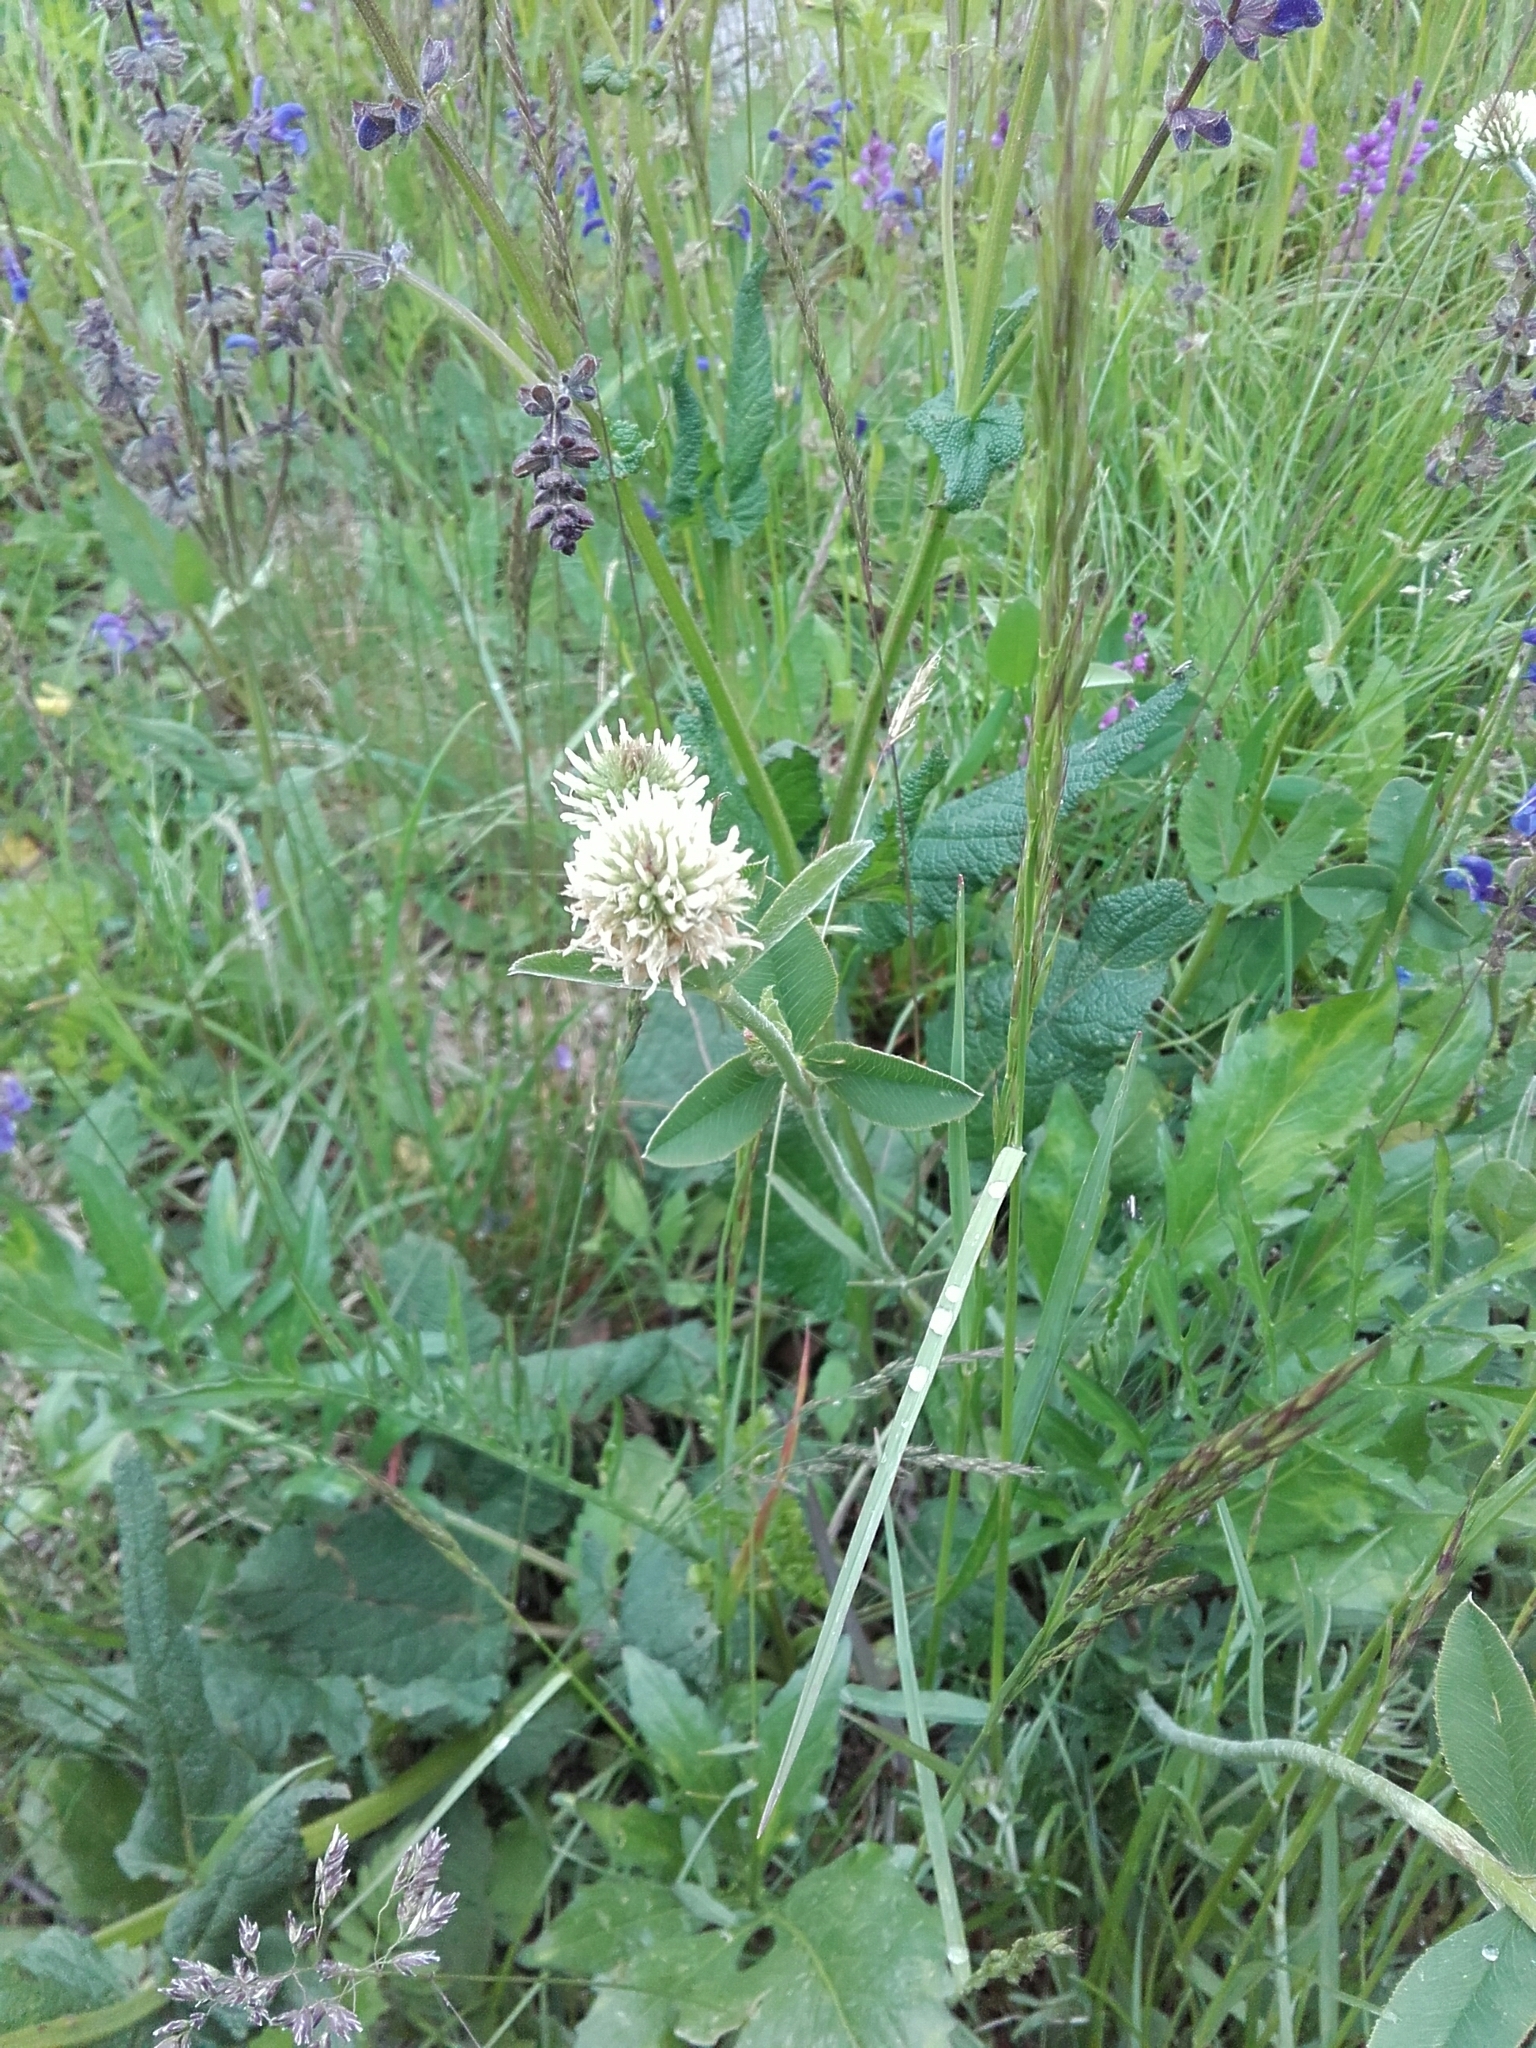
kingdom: Plantae
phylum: Tracheophyta
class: Magnoliopsida
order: Fabales
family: Fabaceae
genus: Trifolium
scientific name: Trifolium montanum
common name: Mountain clover
